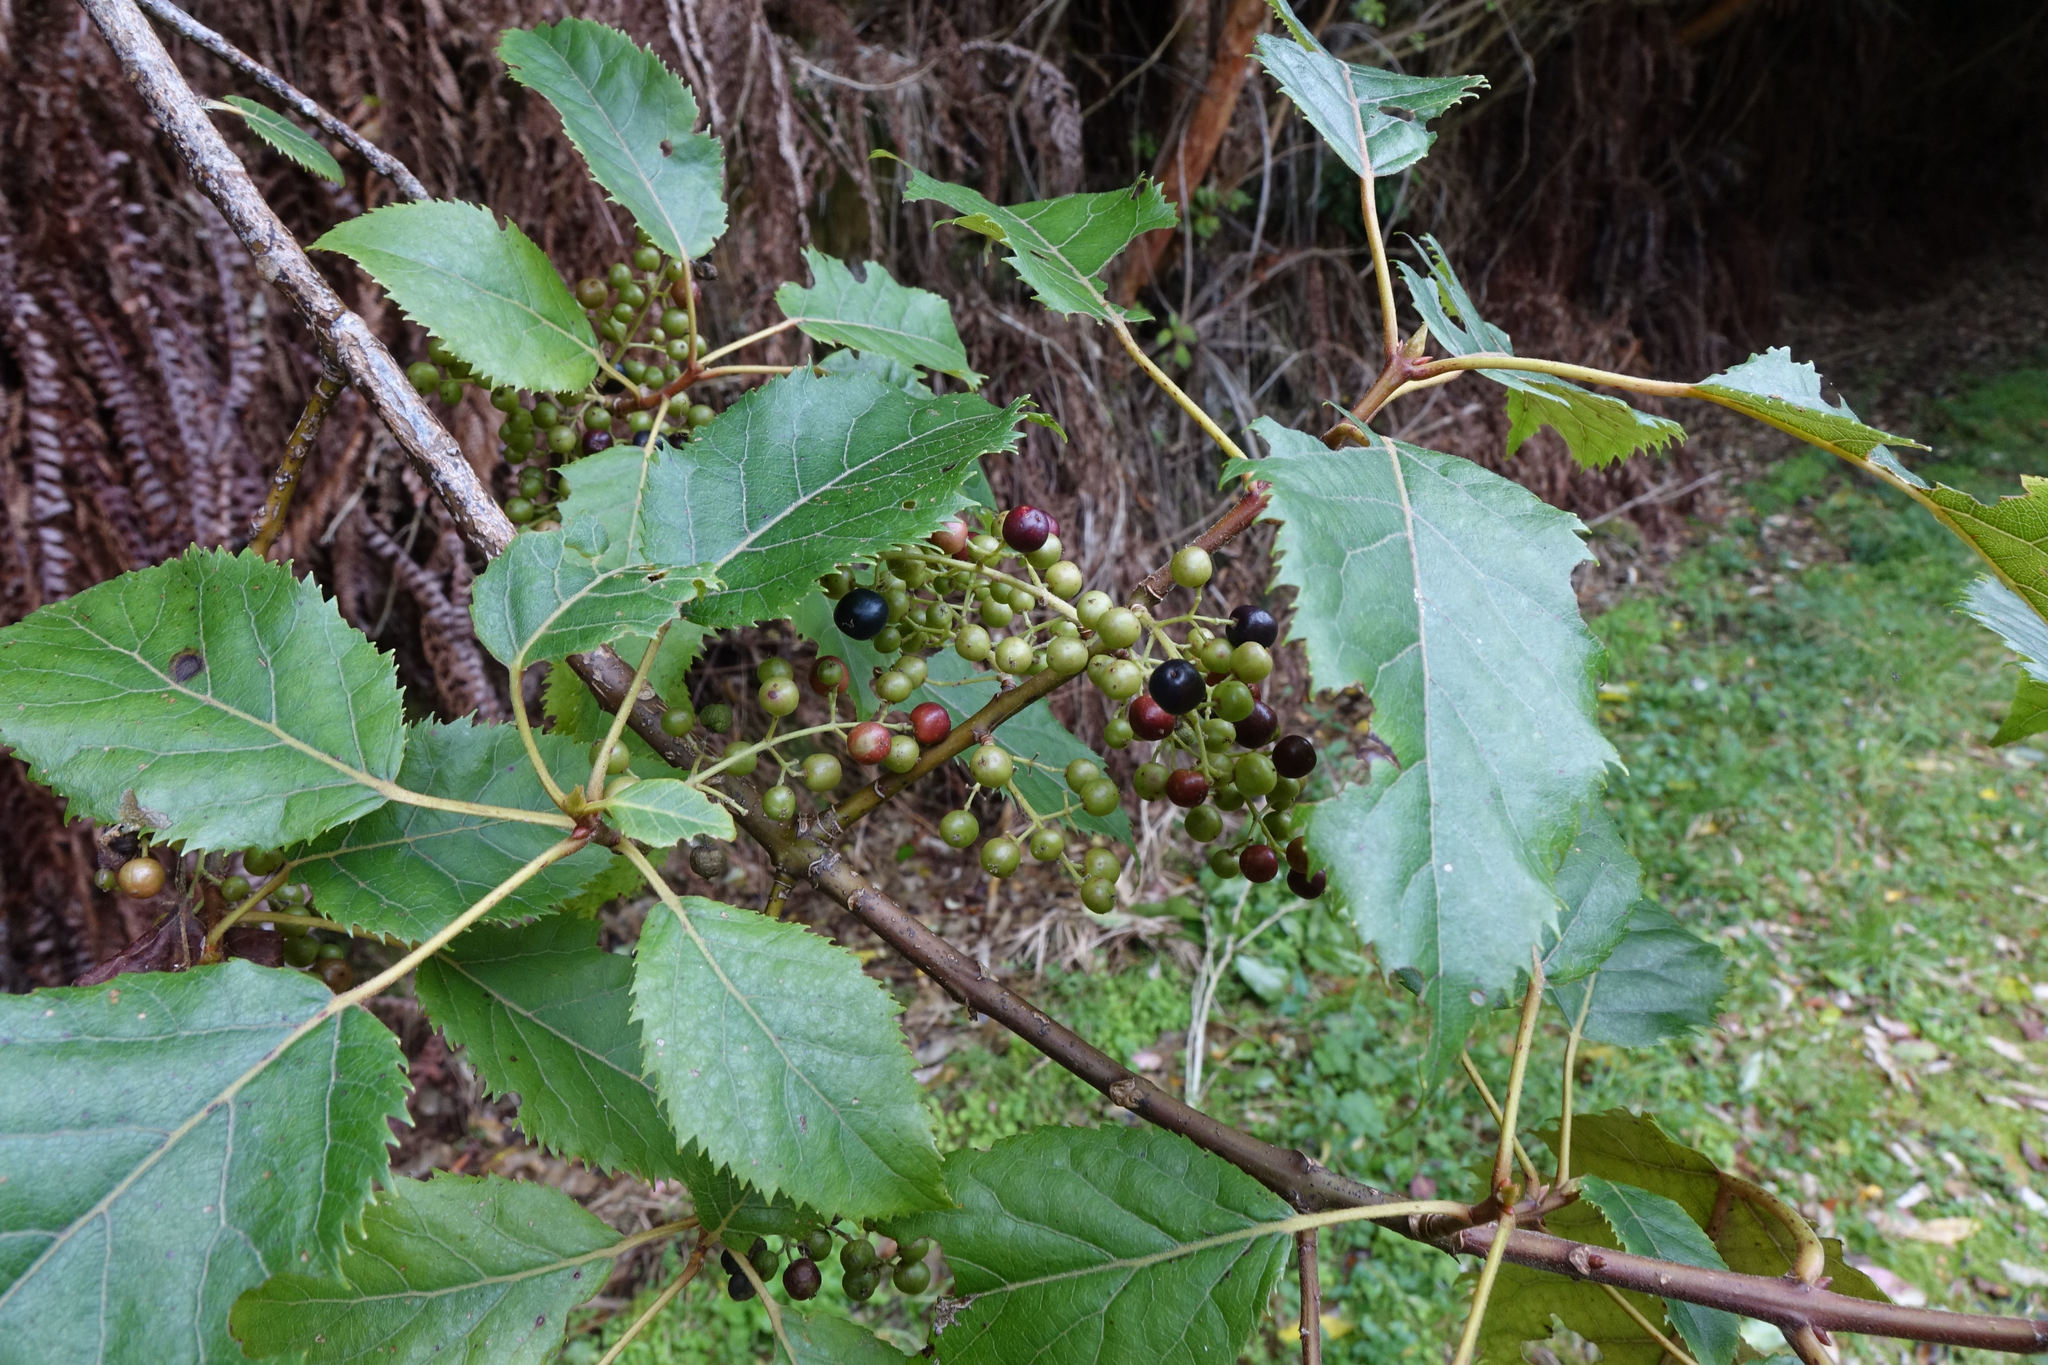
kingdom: Plantae
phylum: Tracheophyta
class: Magnoliopsida
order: Oxalidales
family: Elaeocarpaceae
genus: Aristotelia
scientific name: Aristotelia serrata
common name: New zealand wineberry
